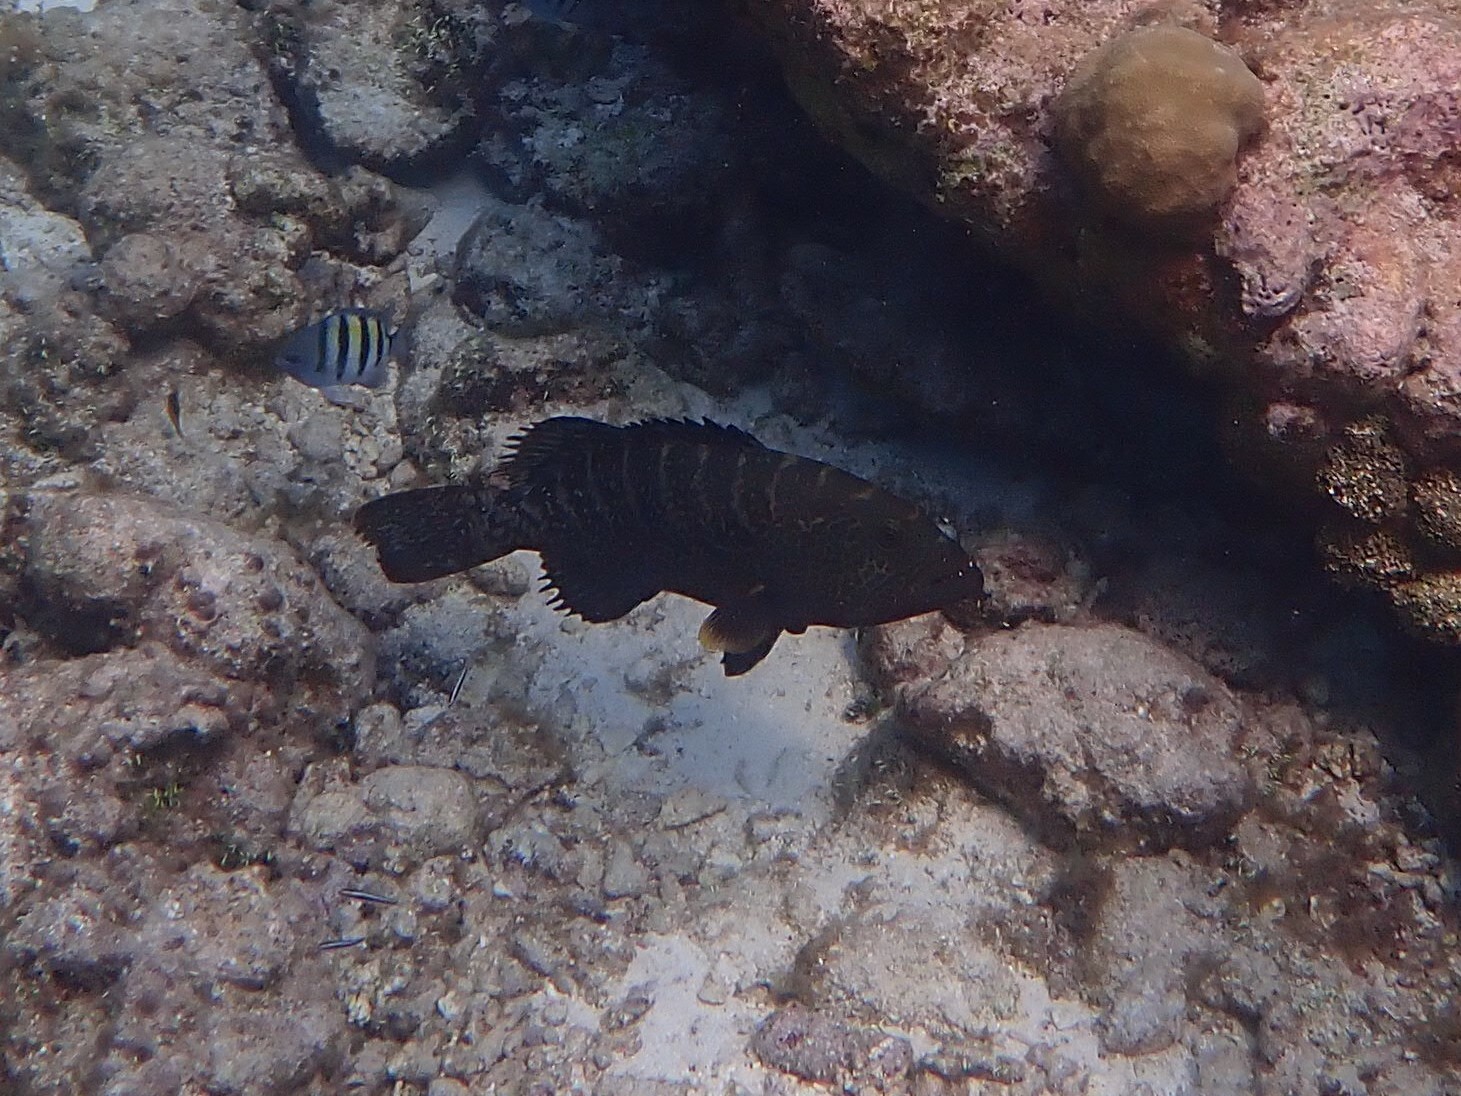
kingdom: Animalia
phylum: Chordata
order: Perciformes
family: Serranidae
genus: Mycteroperca
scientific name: Mycteroperca tigris
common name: Tiger grouper
